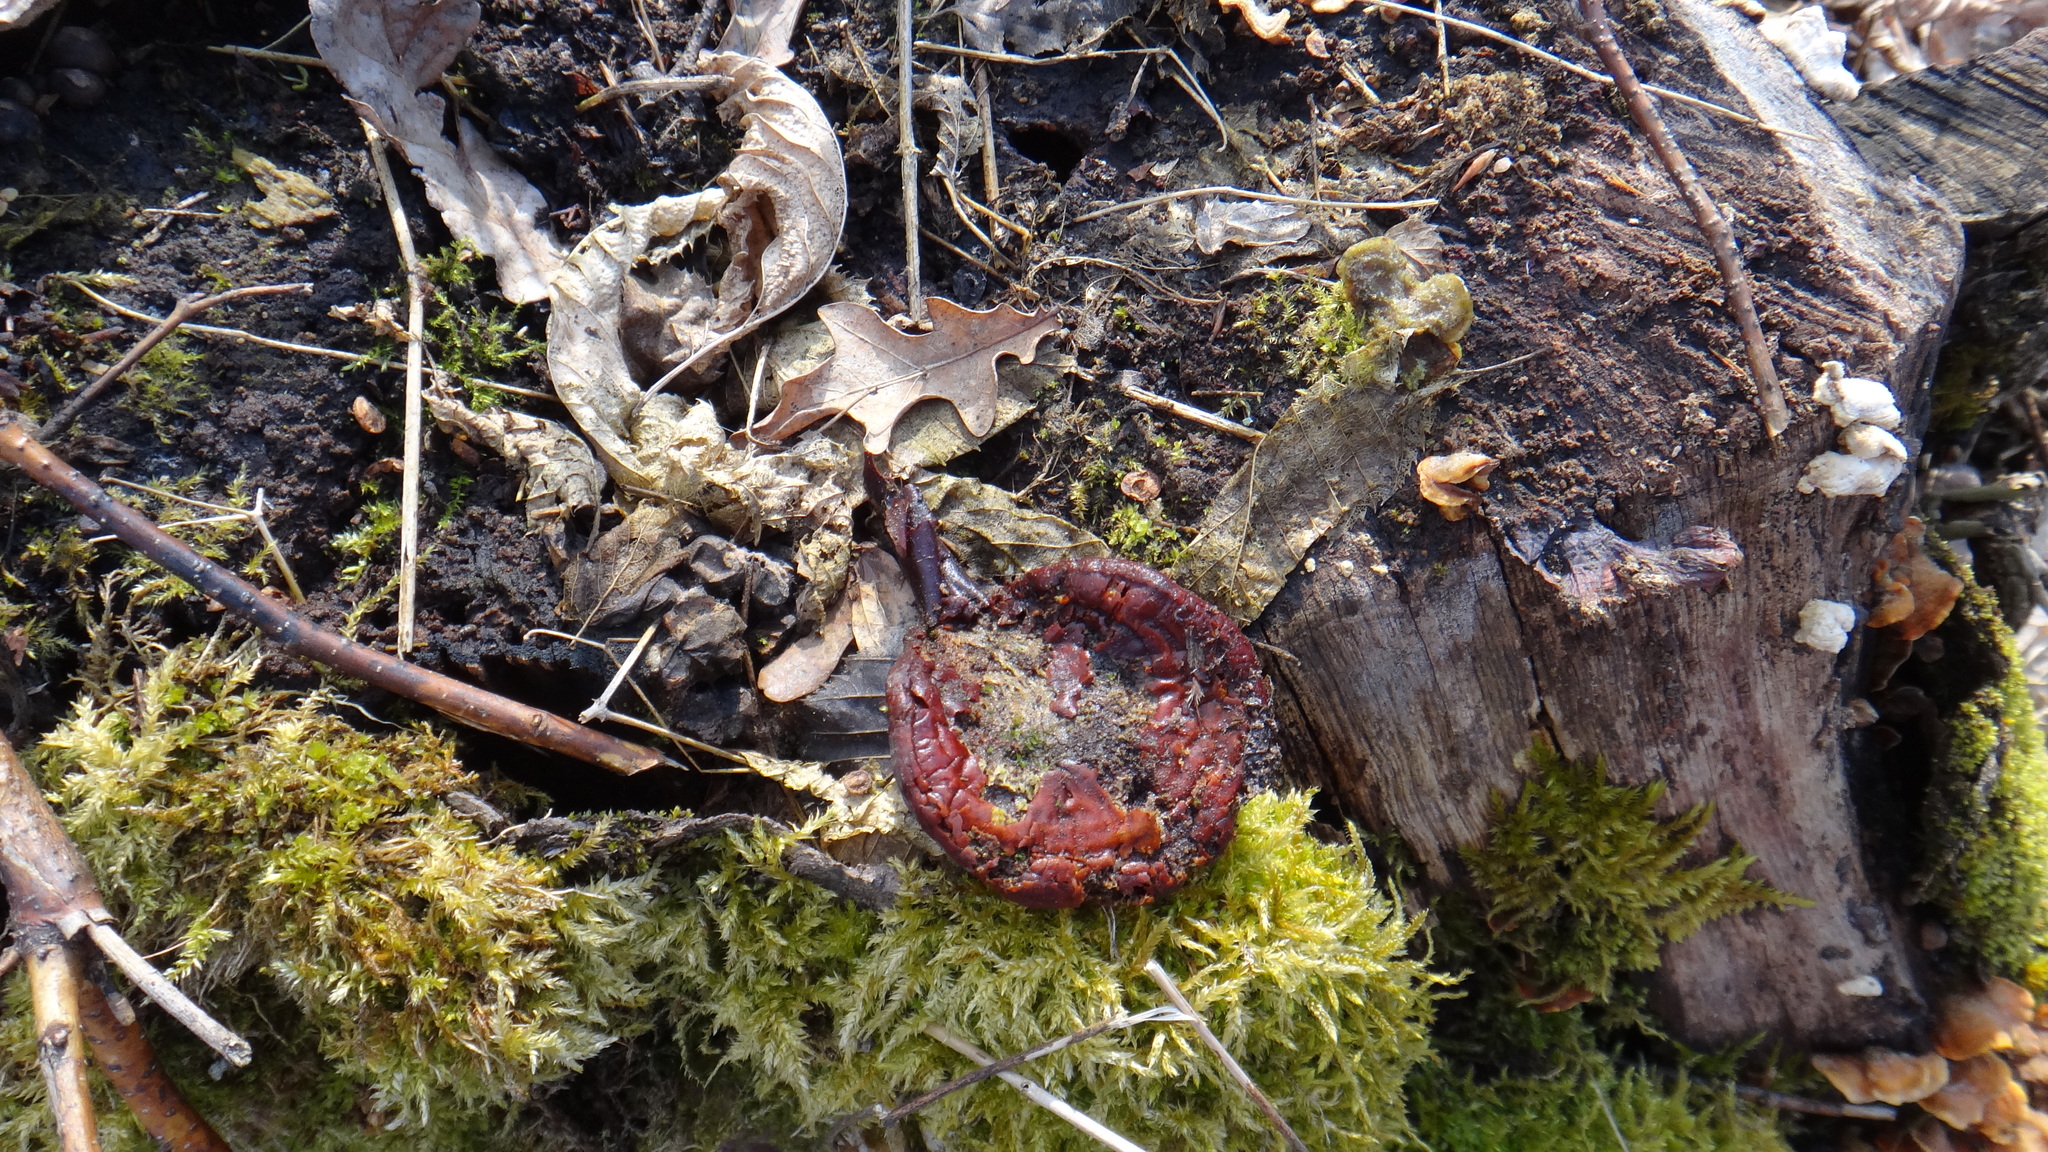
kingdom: Fungi
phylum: Basidiomycota
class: Agaricomycetes
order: Polyporales
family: Polyporaceae
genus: Ganoderma
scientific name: Ganoderma lucidum
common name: Lacquered bracket
